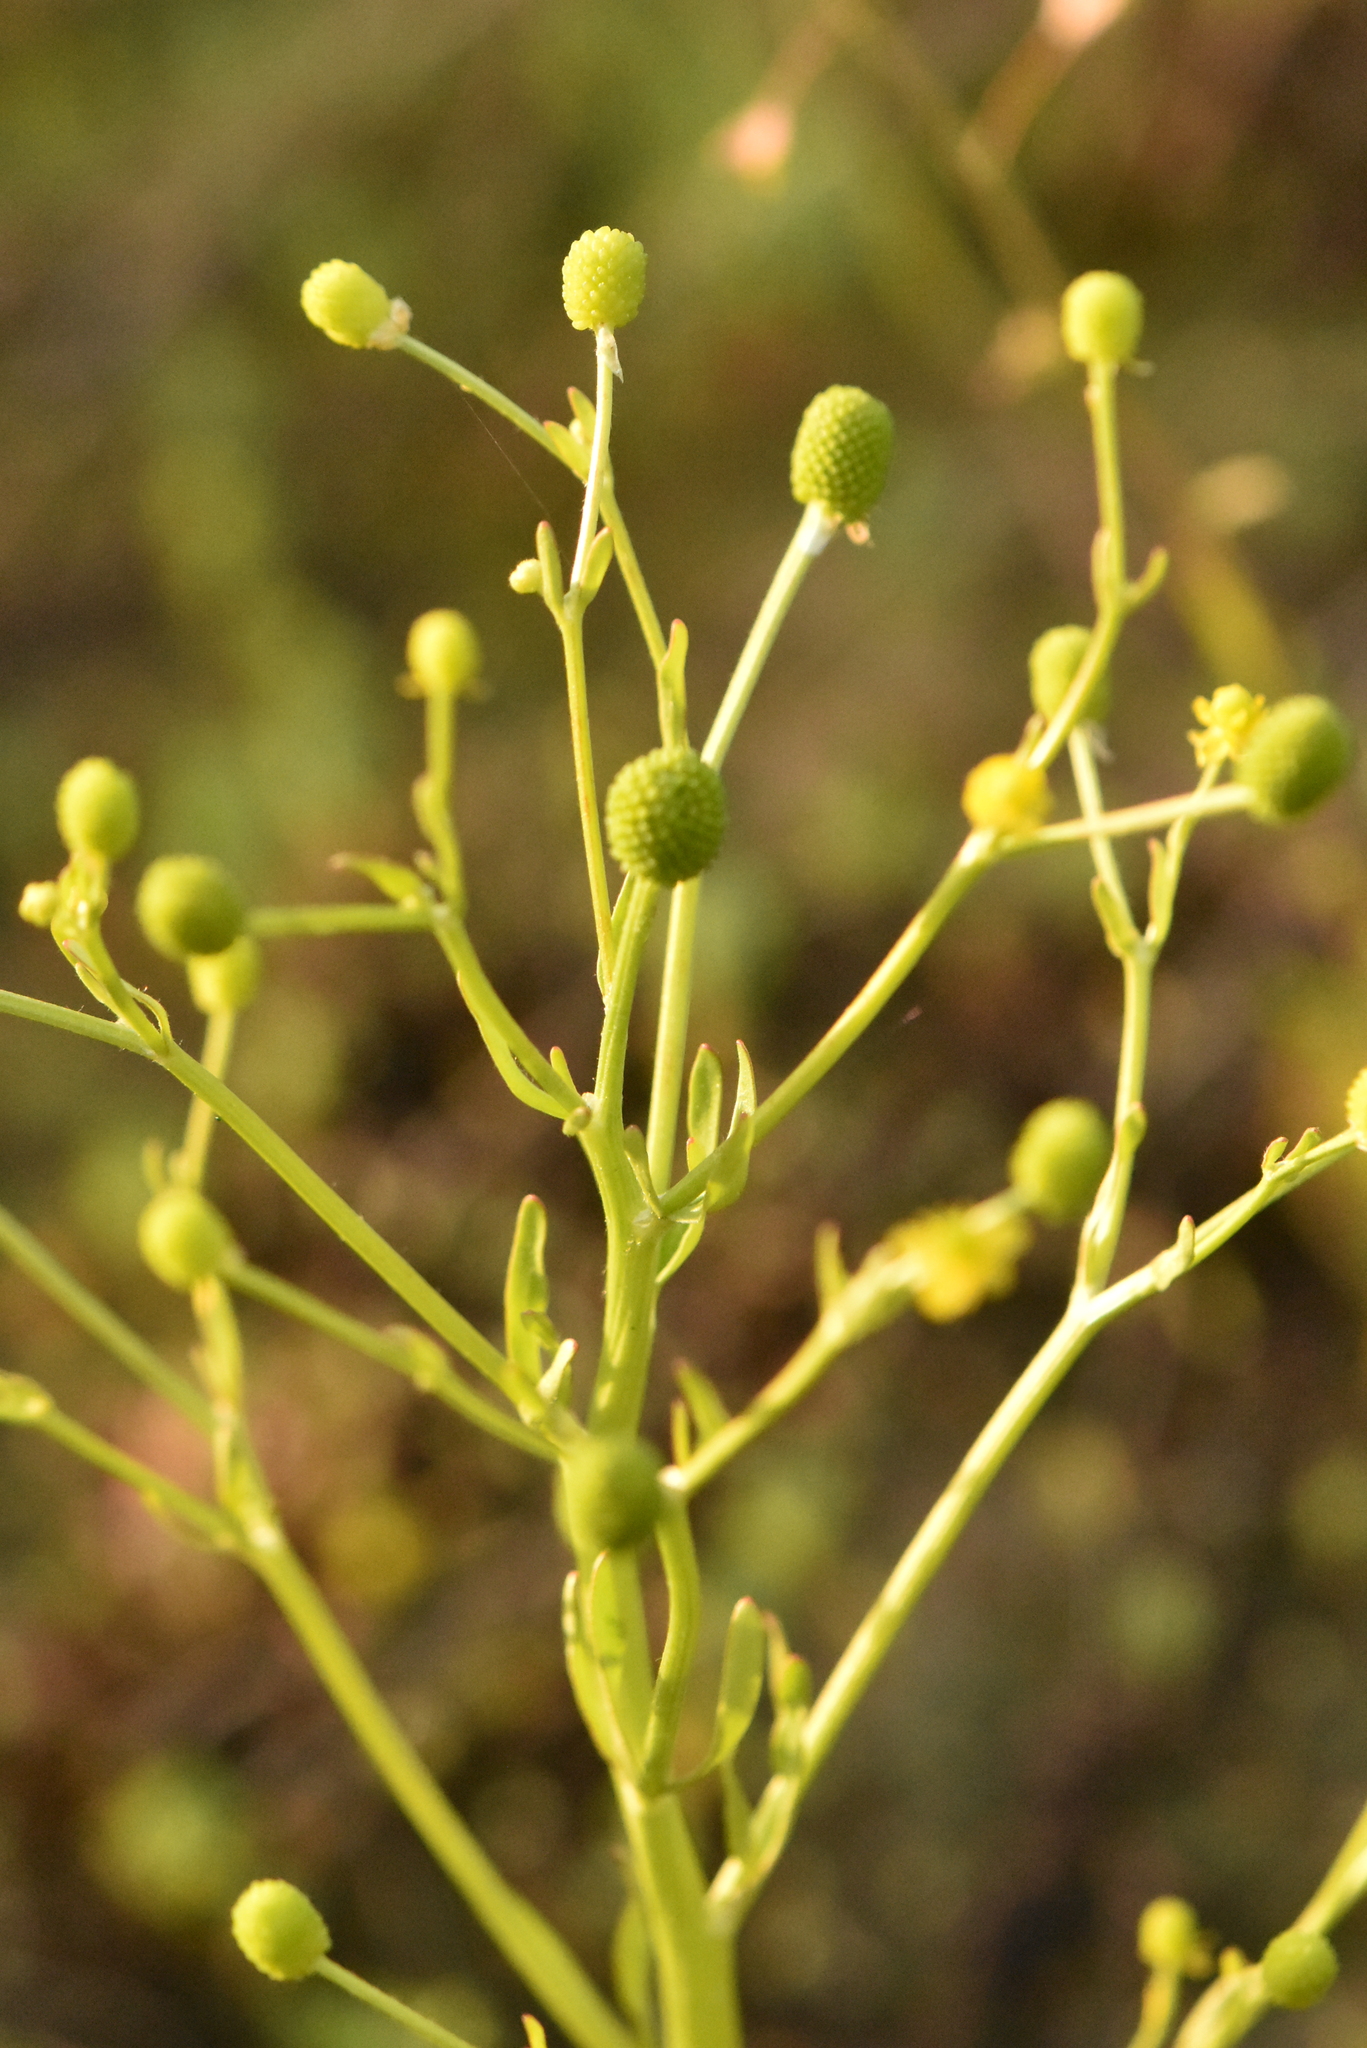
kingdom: Plantae
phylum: Tracheophyta
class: Magnoliopsida
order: Ranunculales
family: Ranunculaceae
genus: Ranunculus
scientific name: Ranunculus sceleratus
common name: Celery-leaved buttercup
